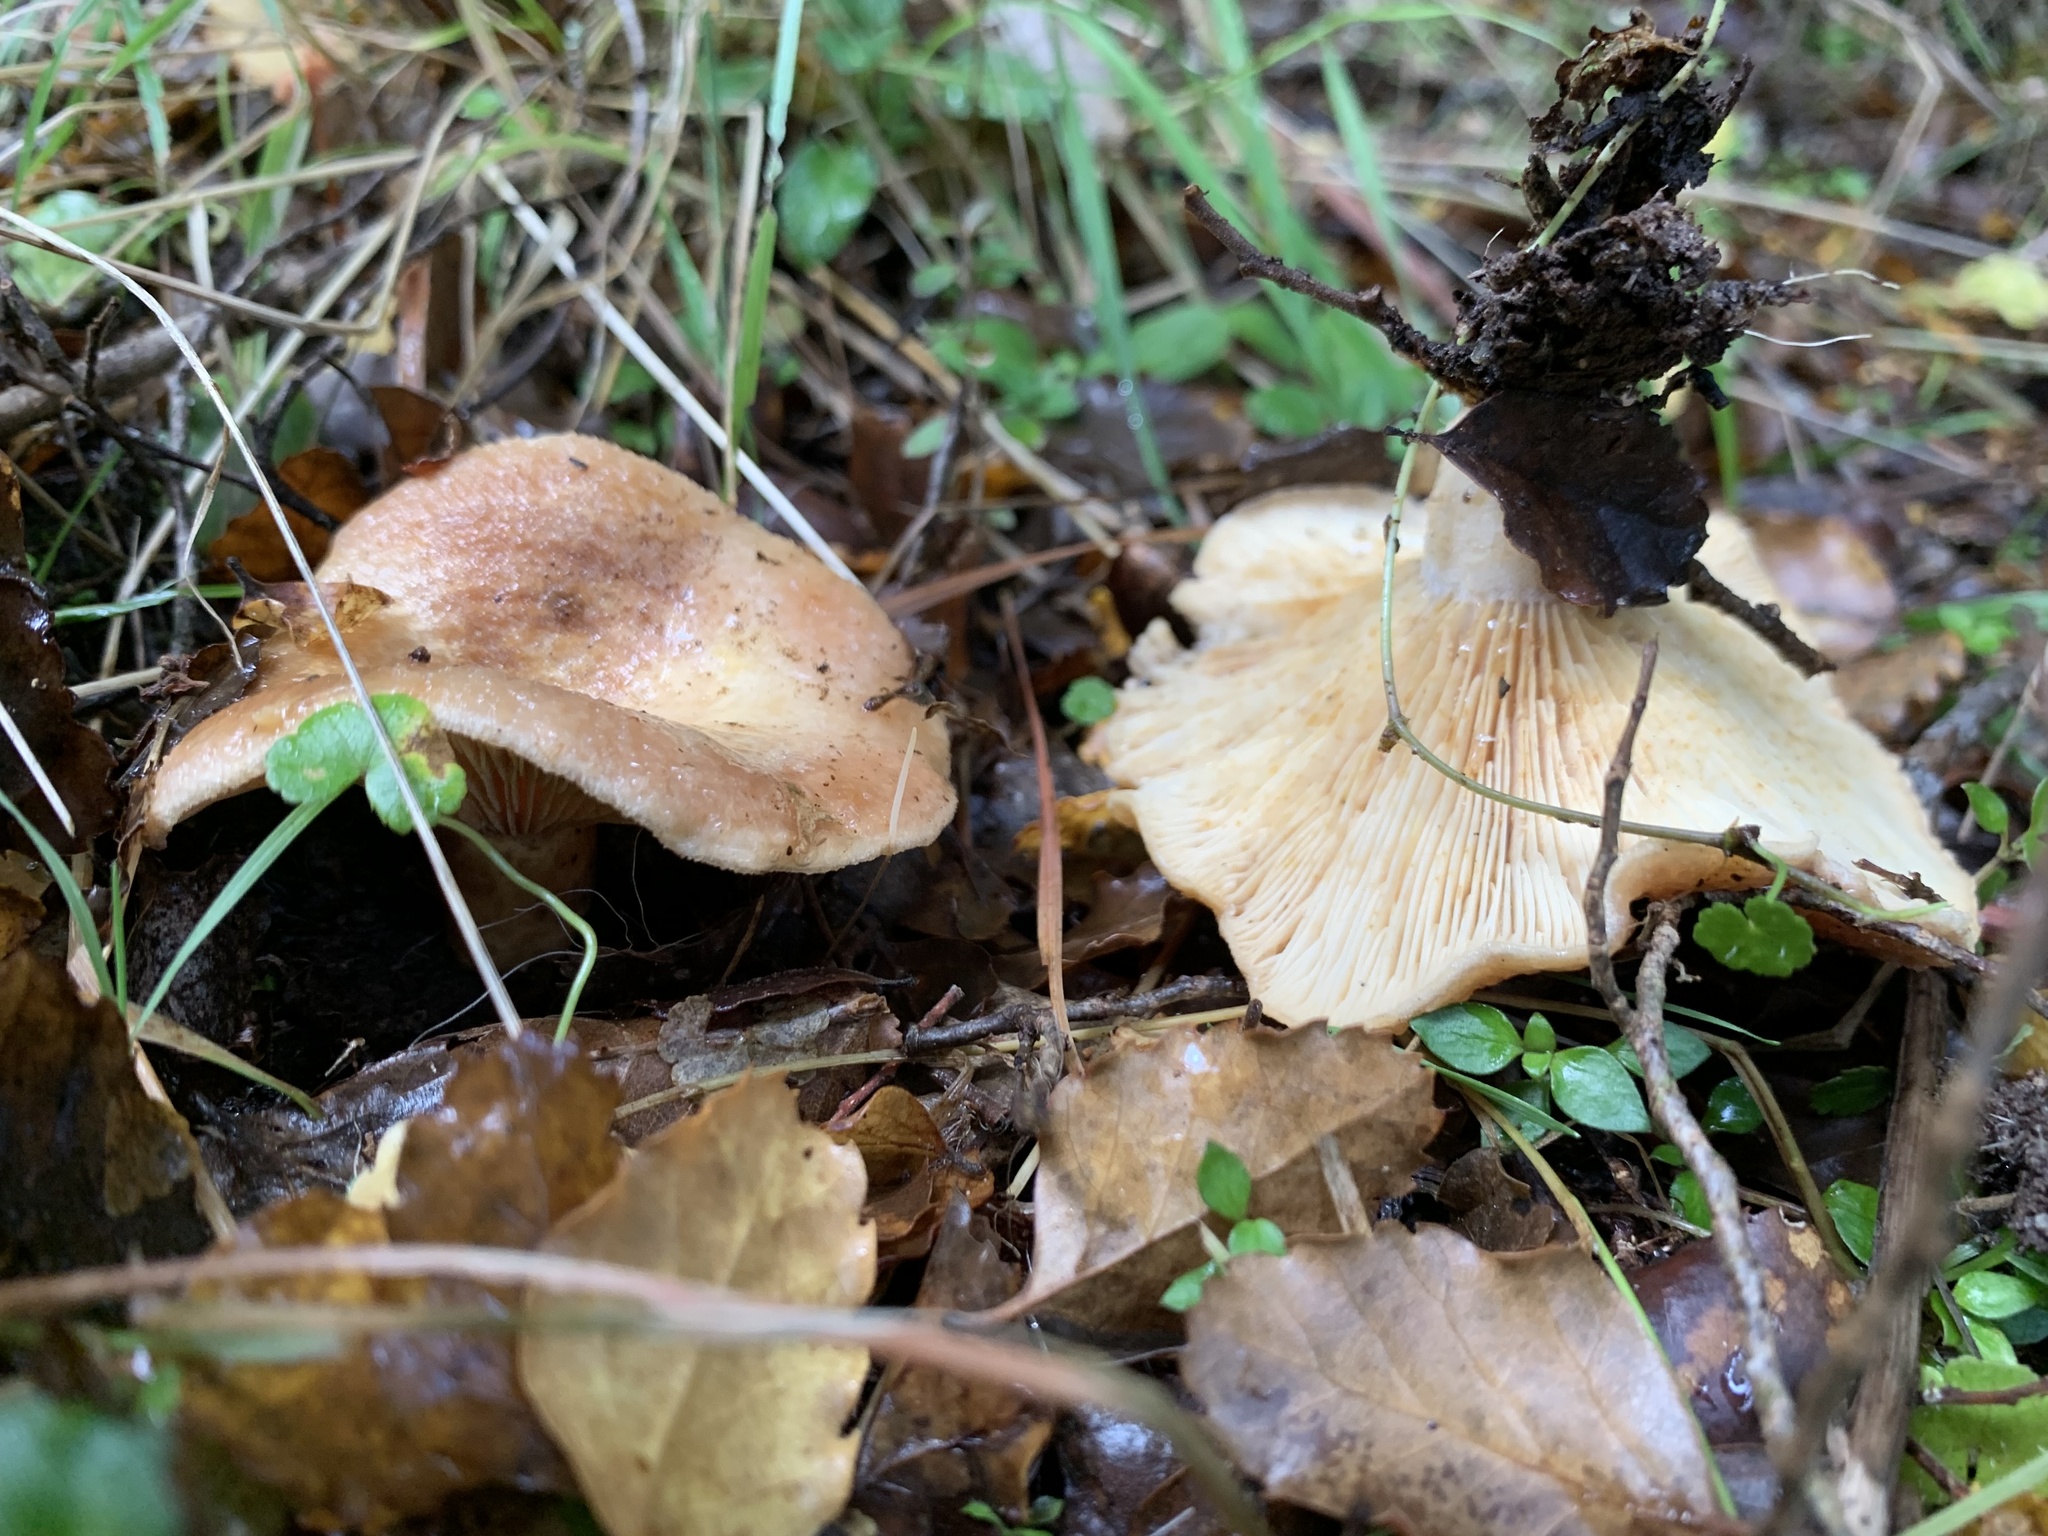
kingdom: Fungi
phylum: Basidiomycota
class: Agaricomycetes
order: Russulales
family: Russulaceae
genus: Lactarius
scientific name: Lactarius tawai
